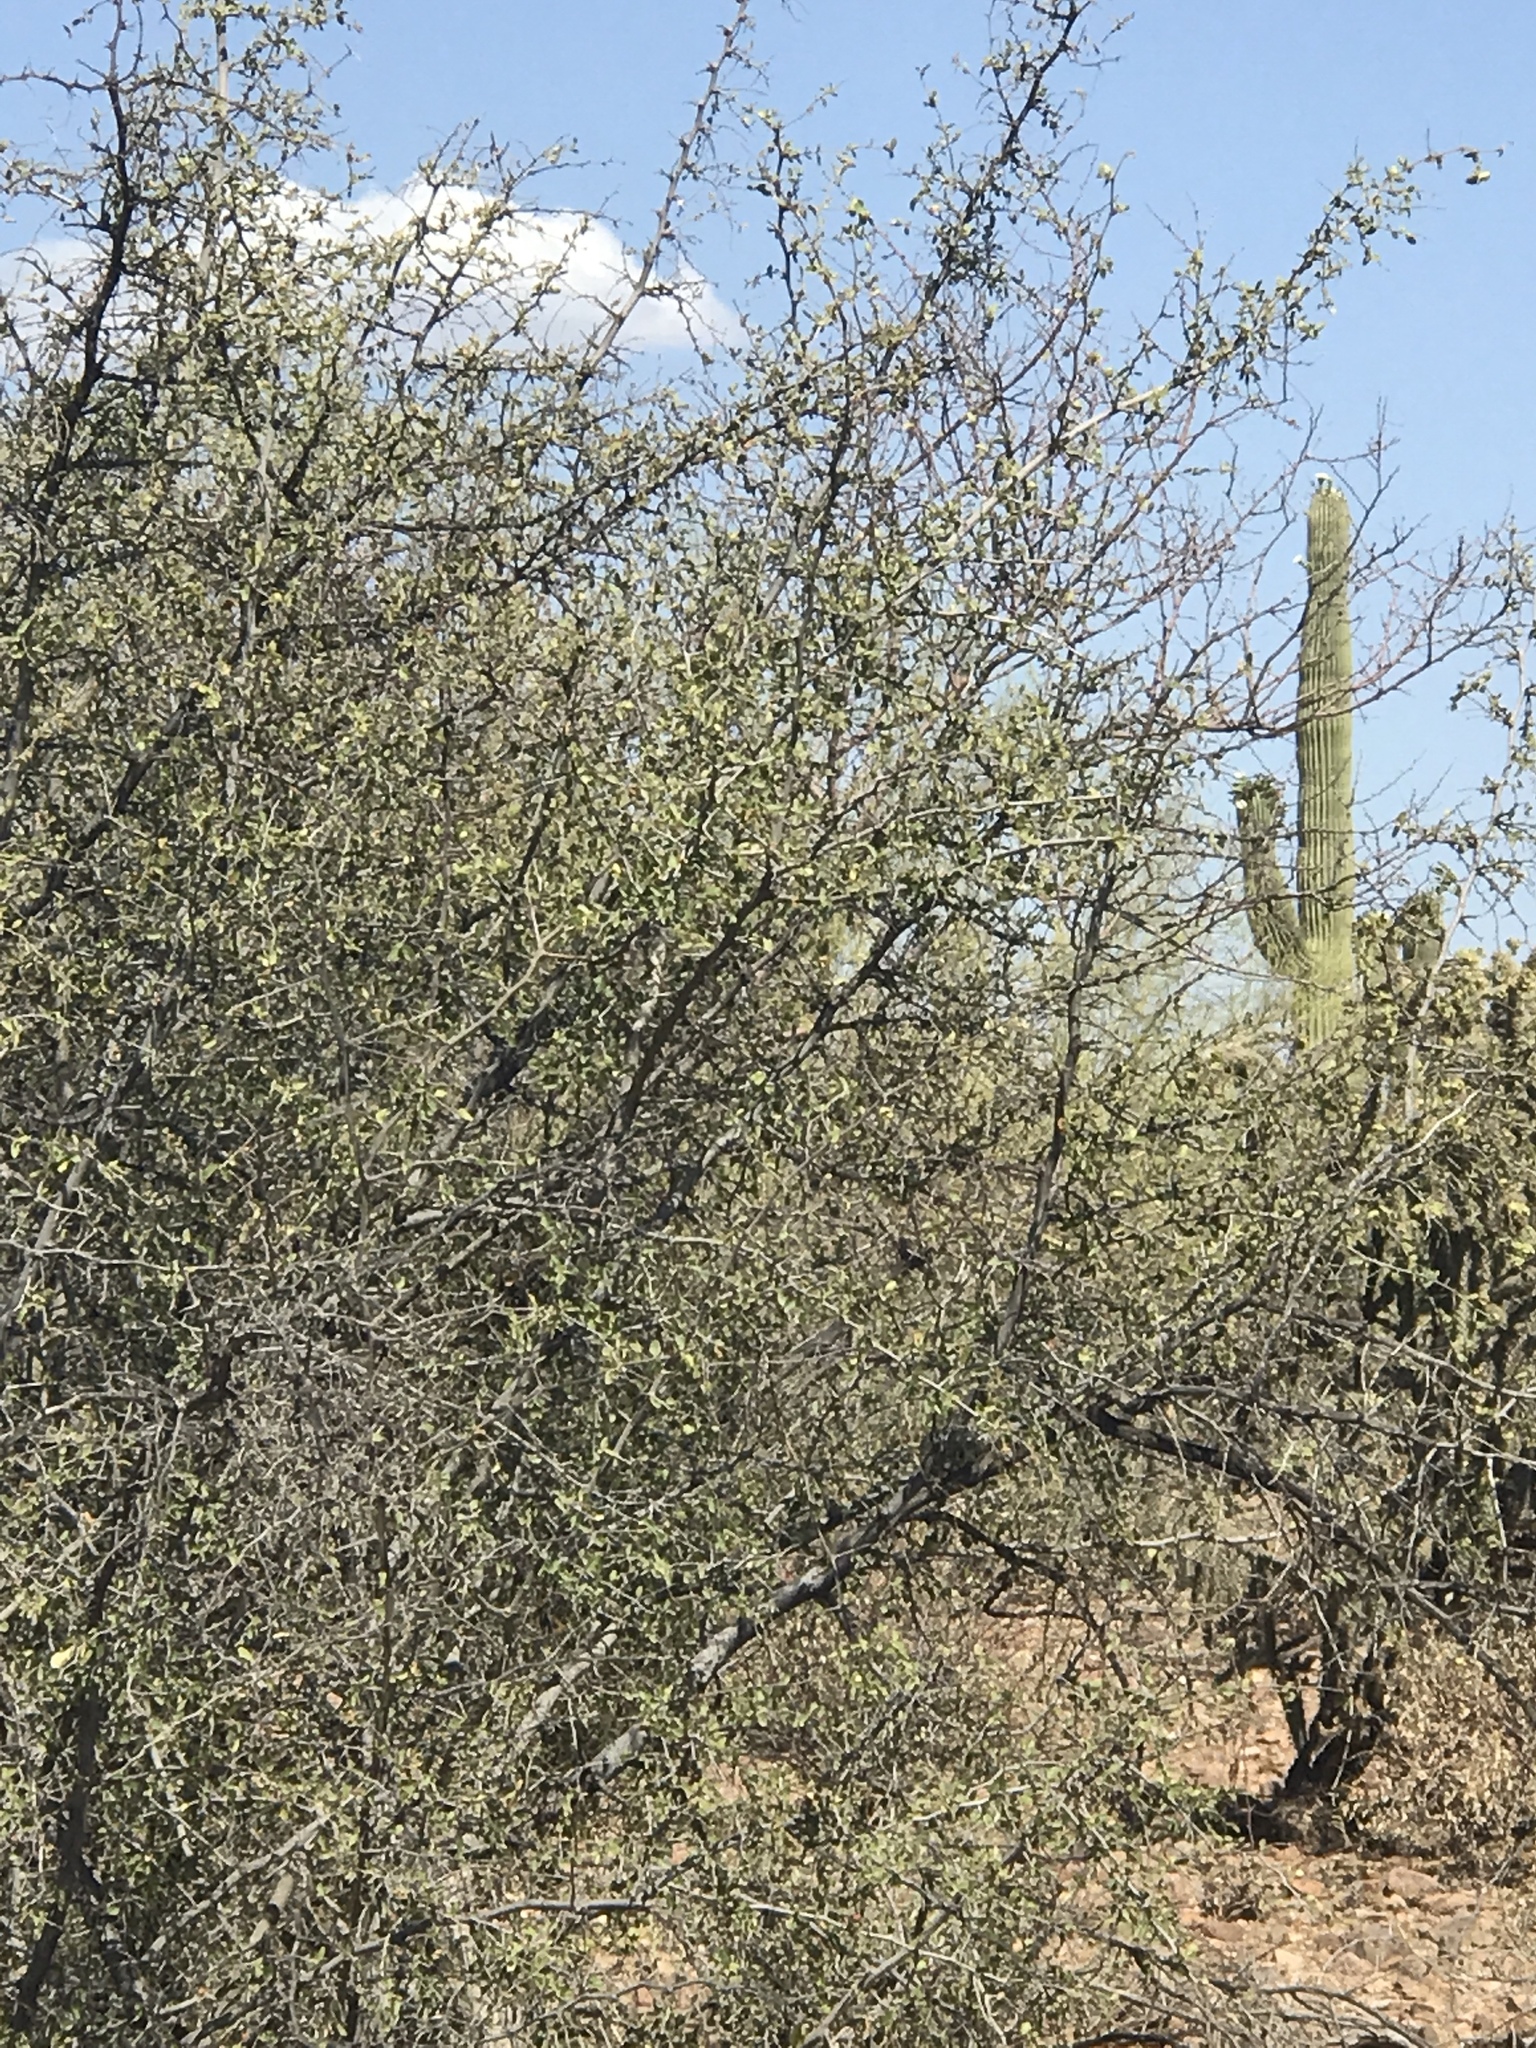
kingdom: Plantae
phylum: Tracheophyta
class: Magnoliopsida
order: Rosales
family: Cannabaceae
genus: Celtis
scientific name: Celtis pallida
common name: Desert hackberry
